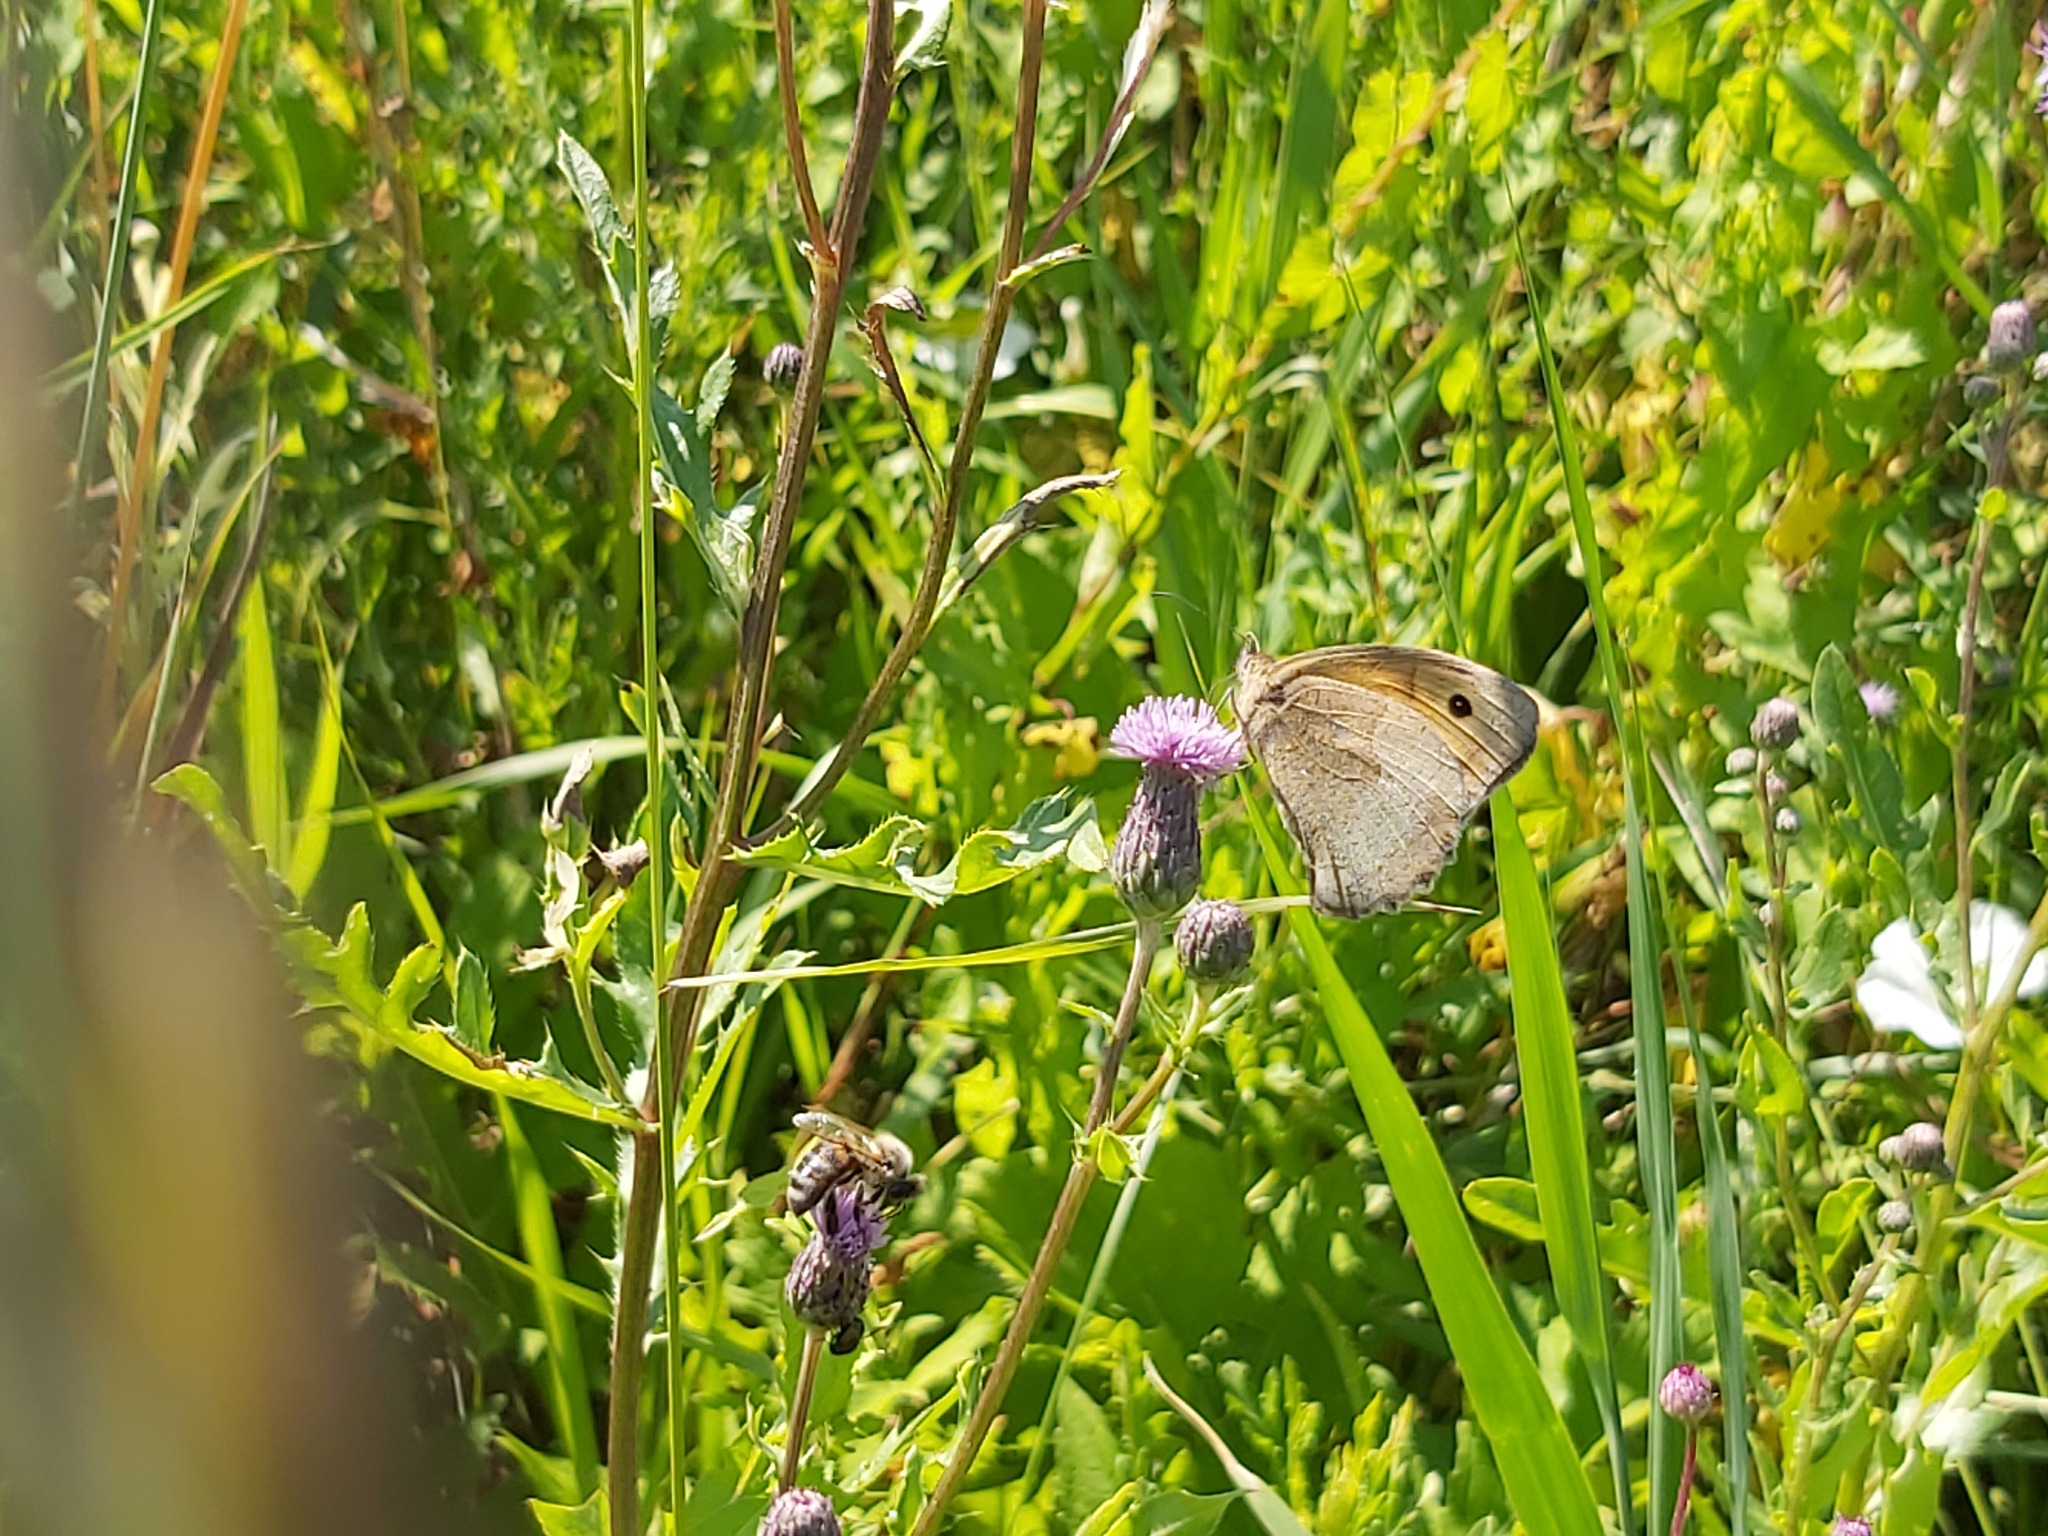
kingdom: Animalia
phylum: Arthropoda
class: Insecta
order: Lepidoptera
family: Nymphalidae
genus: Maniola
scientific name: Maniola jurtina
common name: Meadow brown
